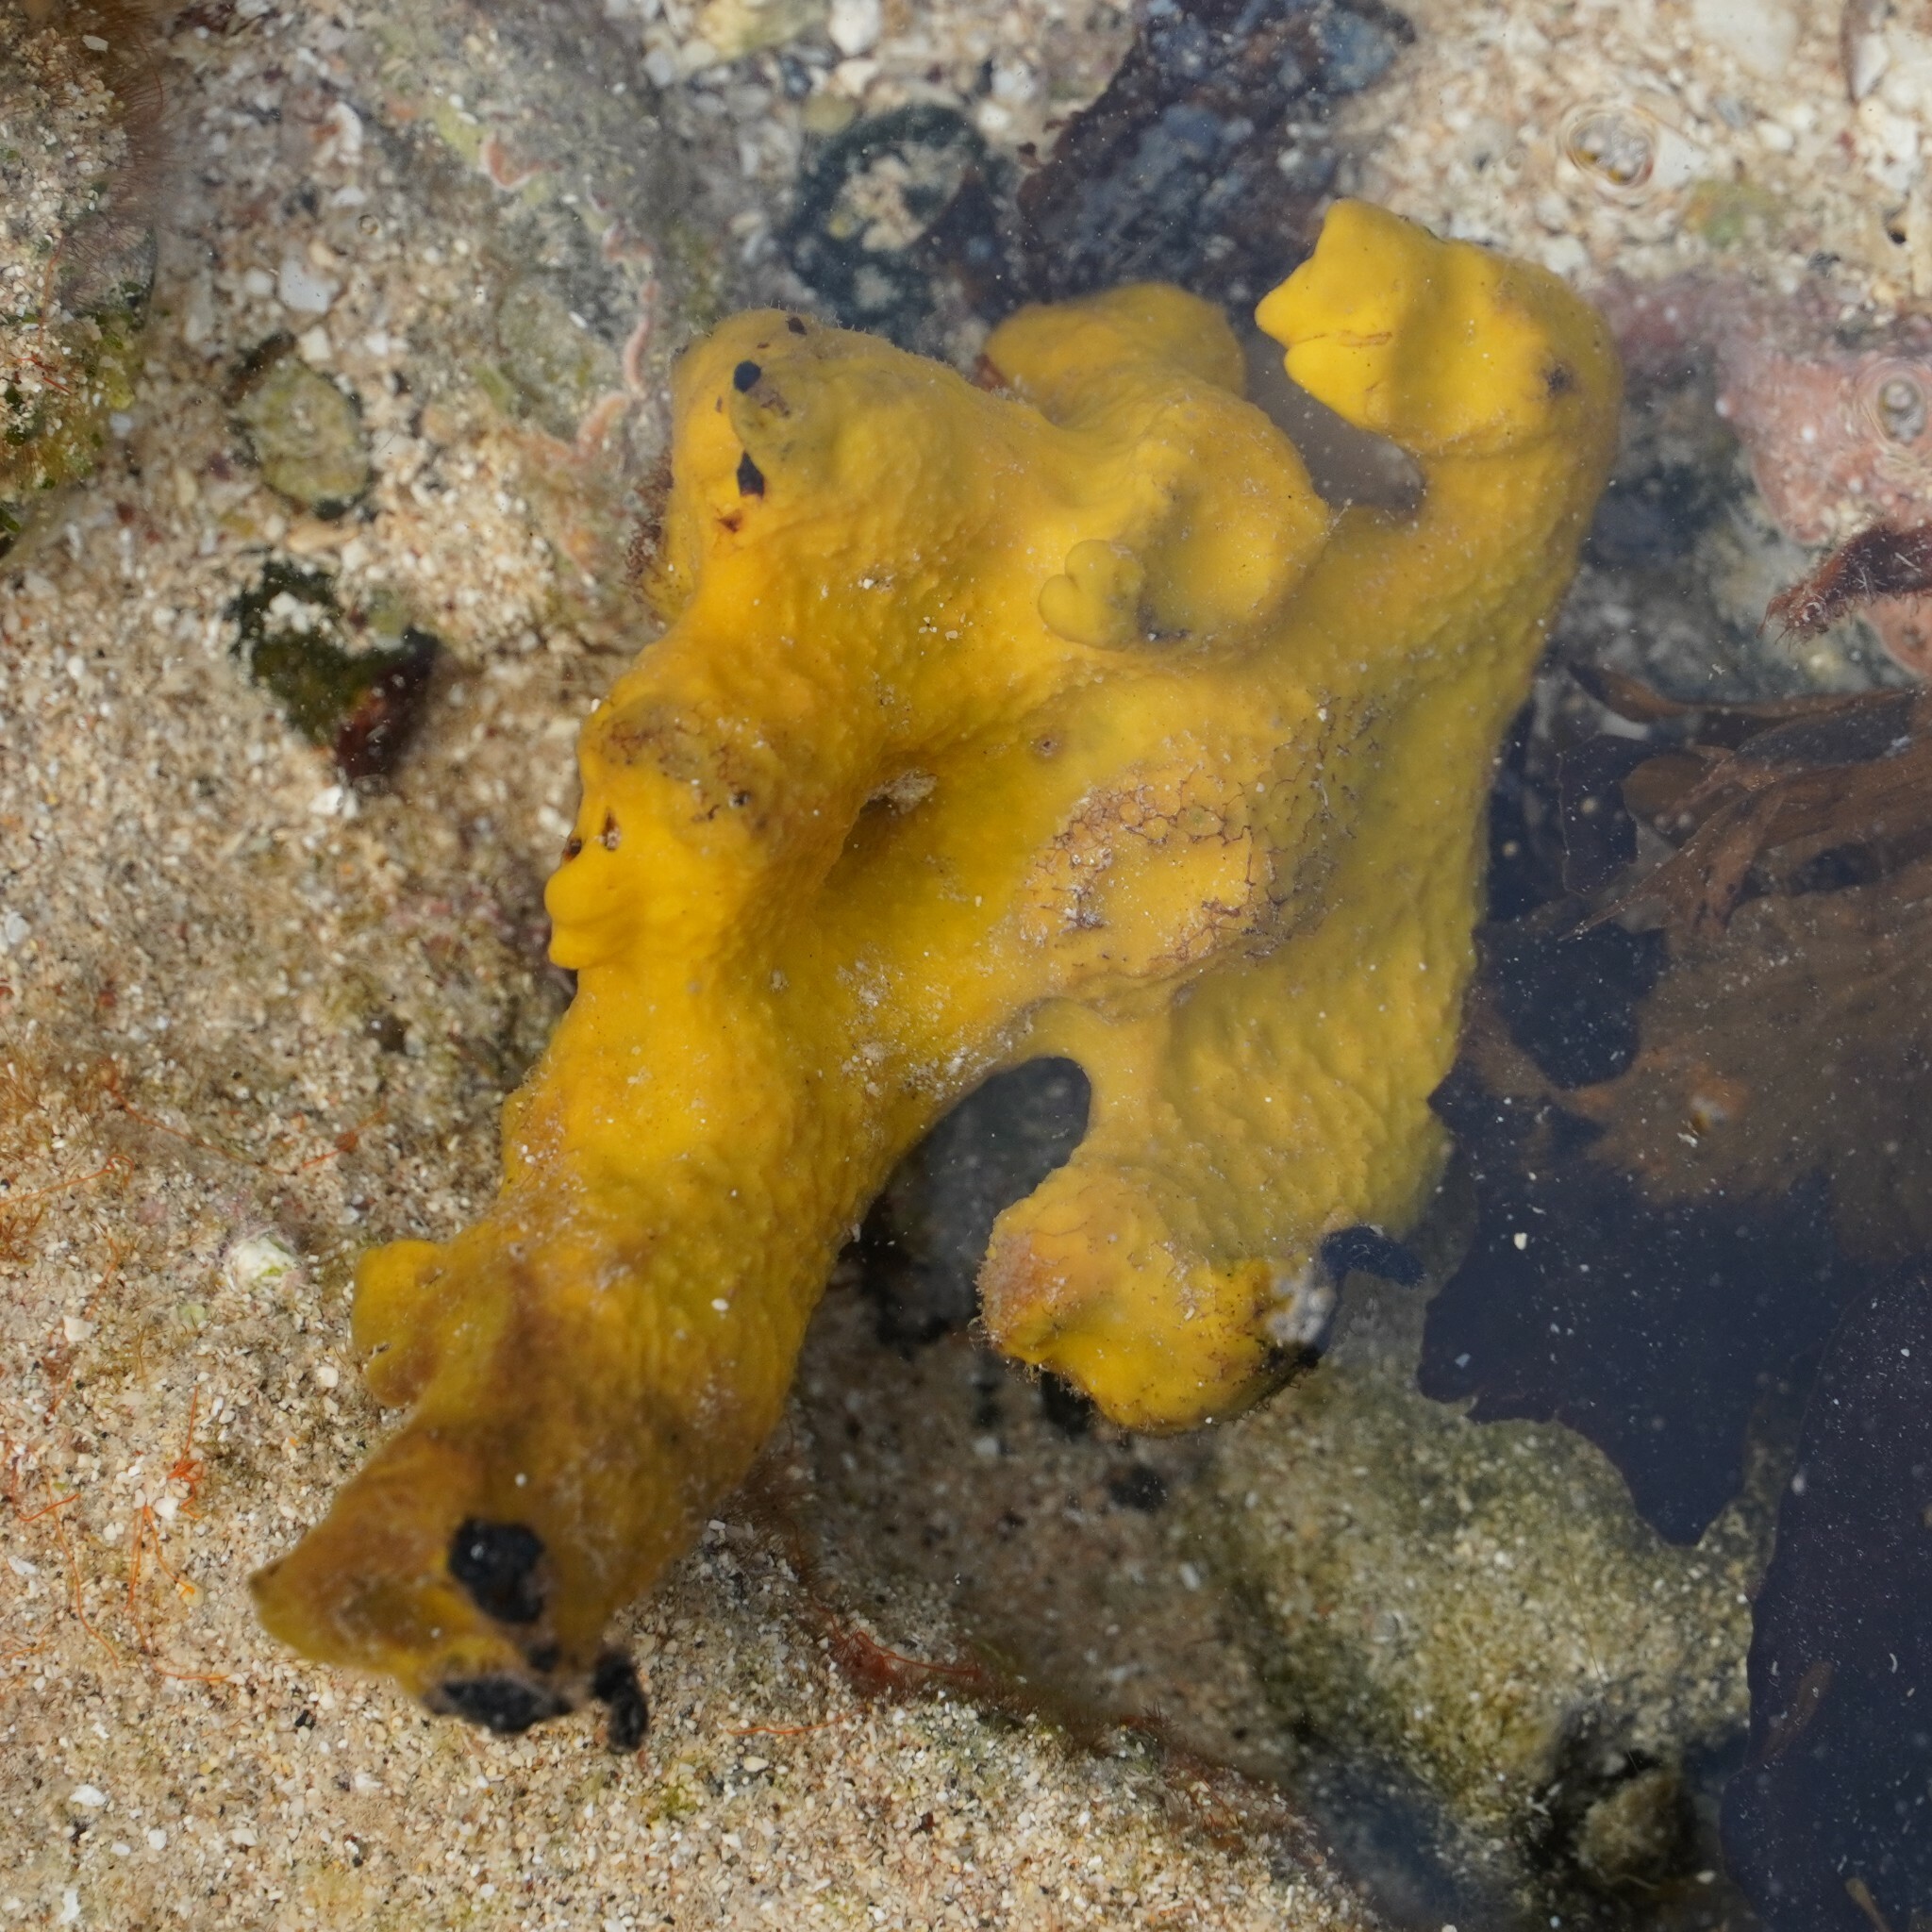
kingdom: Animalia
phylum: Porifera
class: Demospongiae
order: Verongiida
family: Aplysinidae
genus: Aplysina
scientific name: Aplysina aerophoba
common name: Aureate sponge
